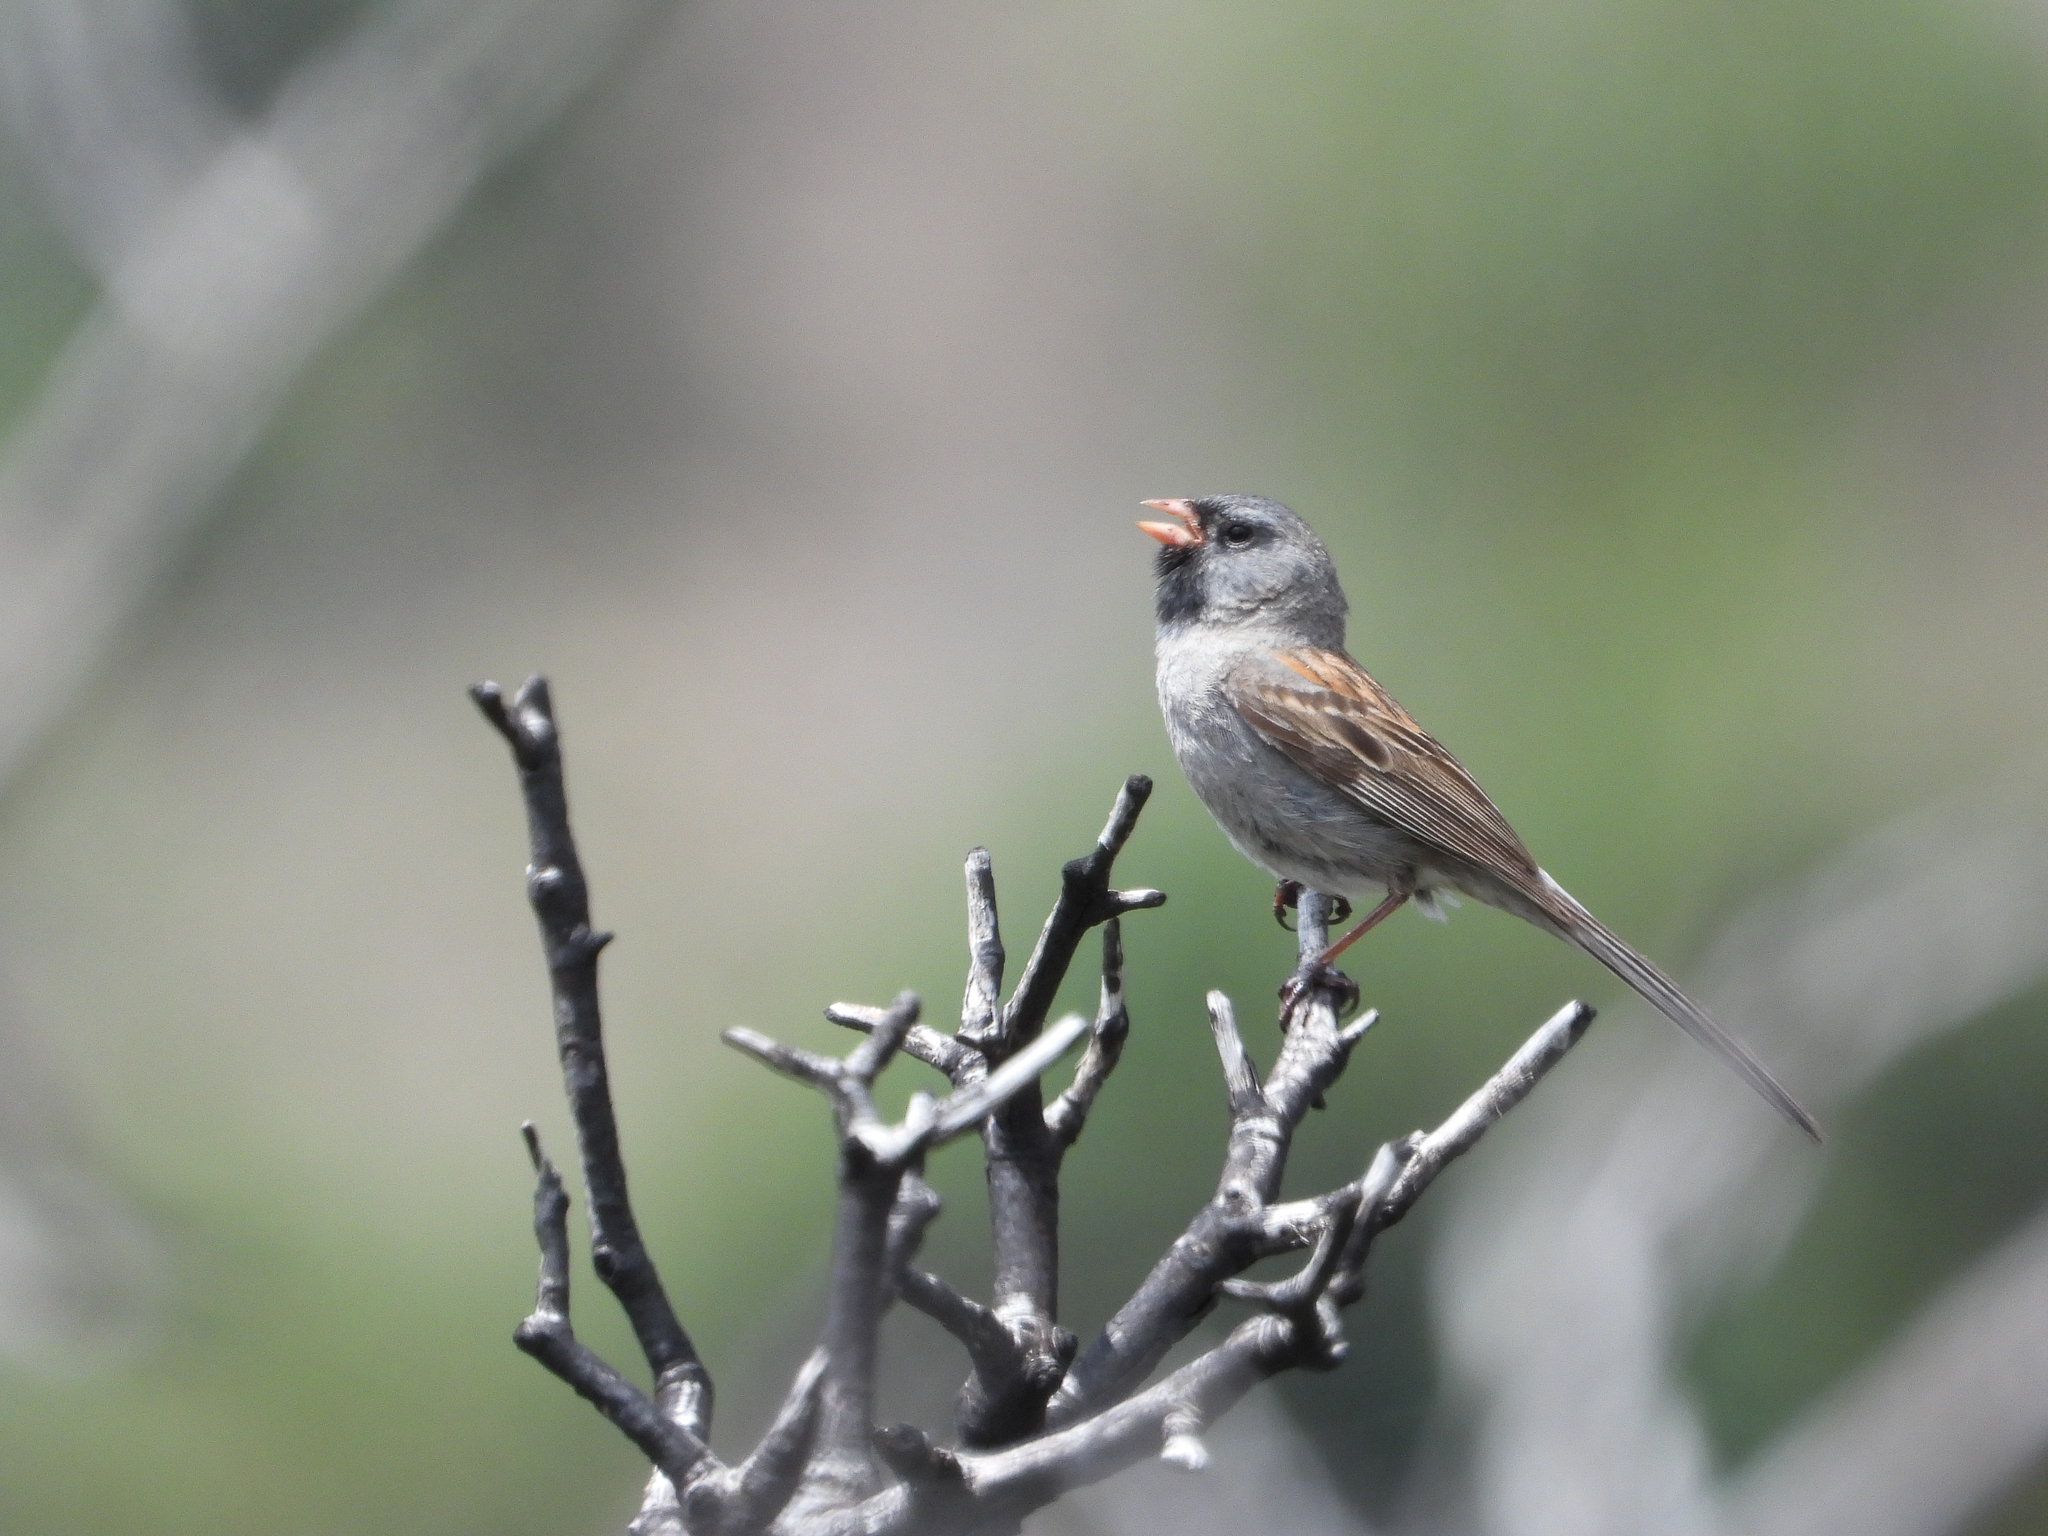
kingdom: Animalia
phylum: Chordata
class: Aves
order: Passeriformes
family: Passerellidae
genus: Spizella
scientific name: Spizella atrogularis
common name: Black-chinned sparrow
